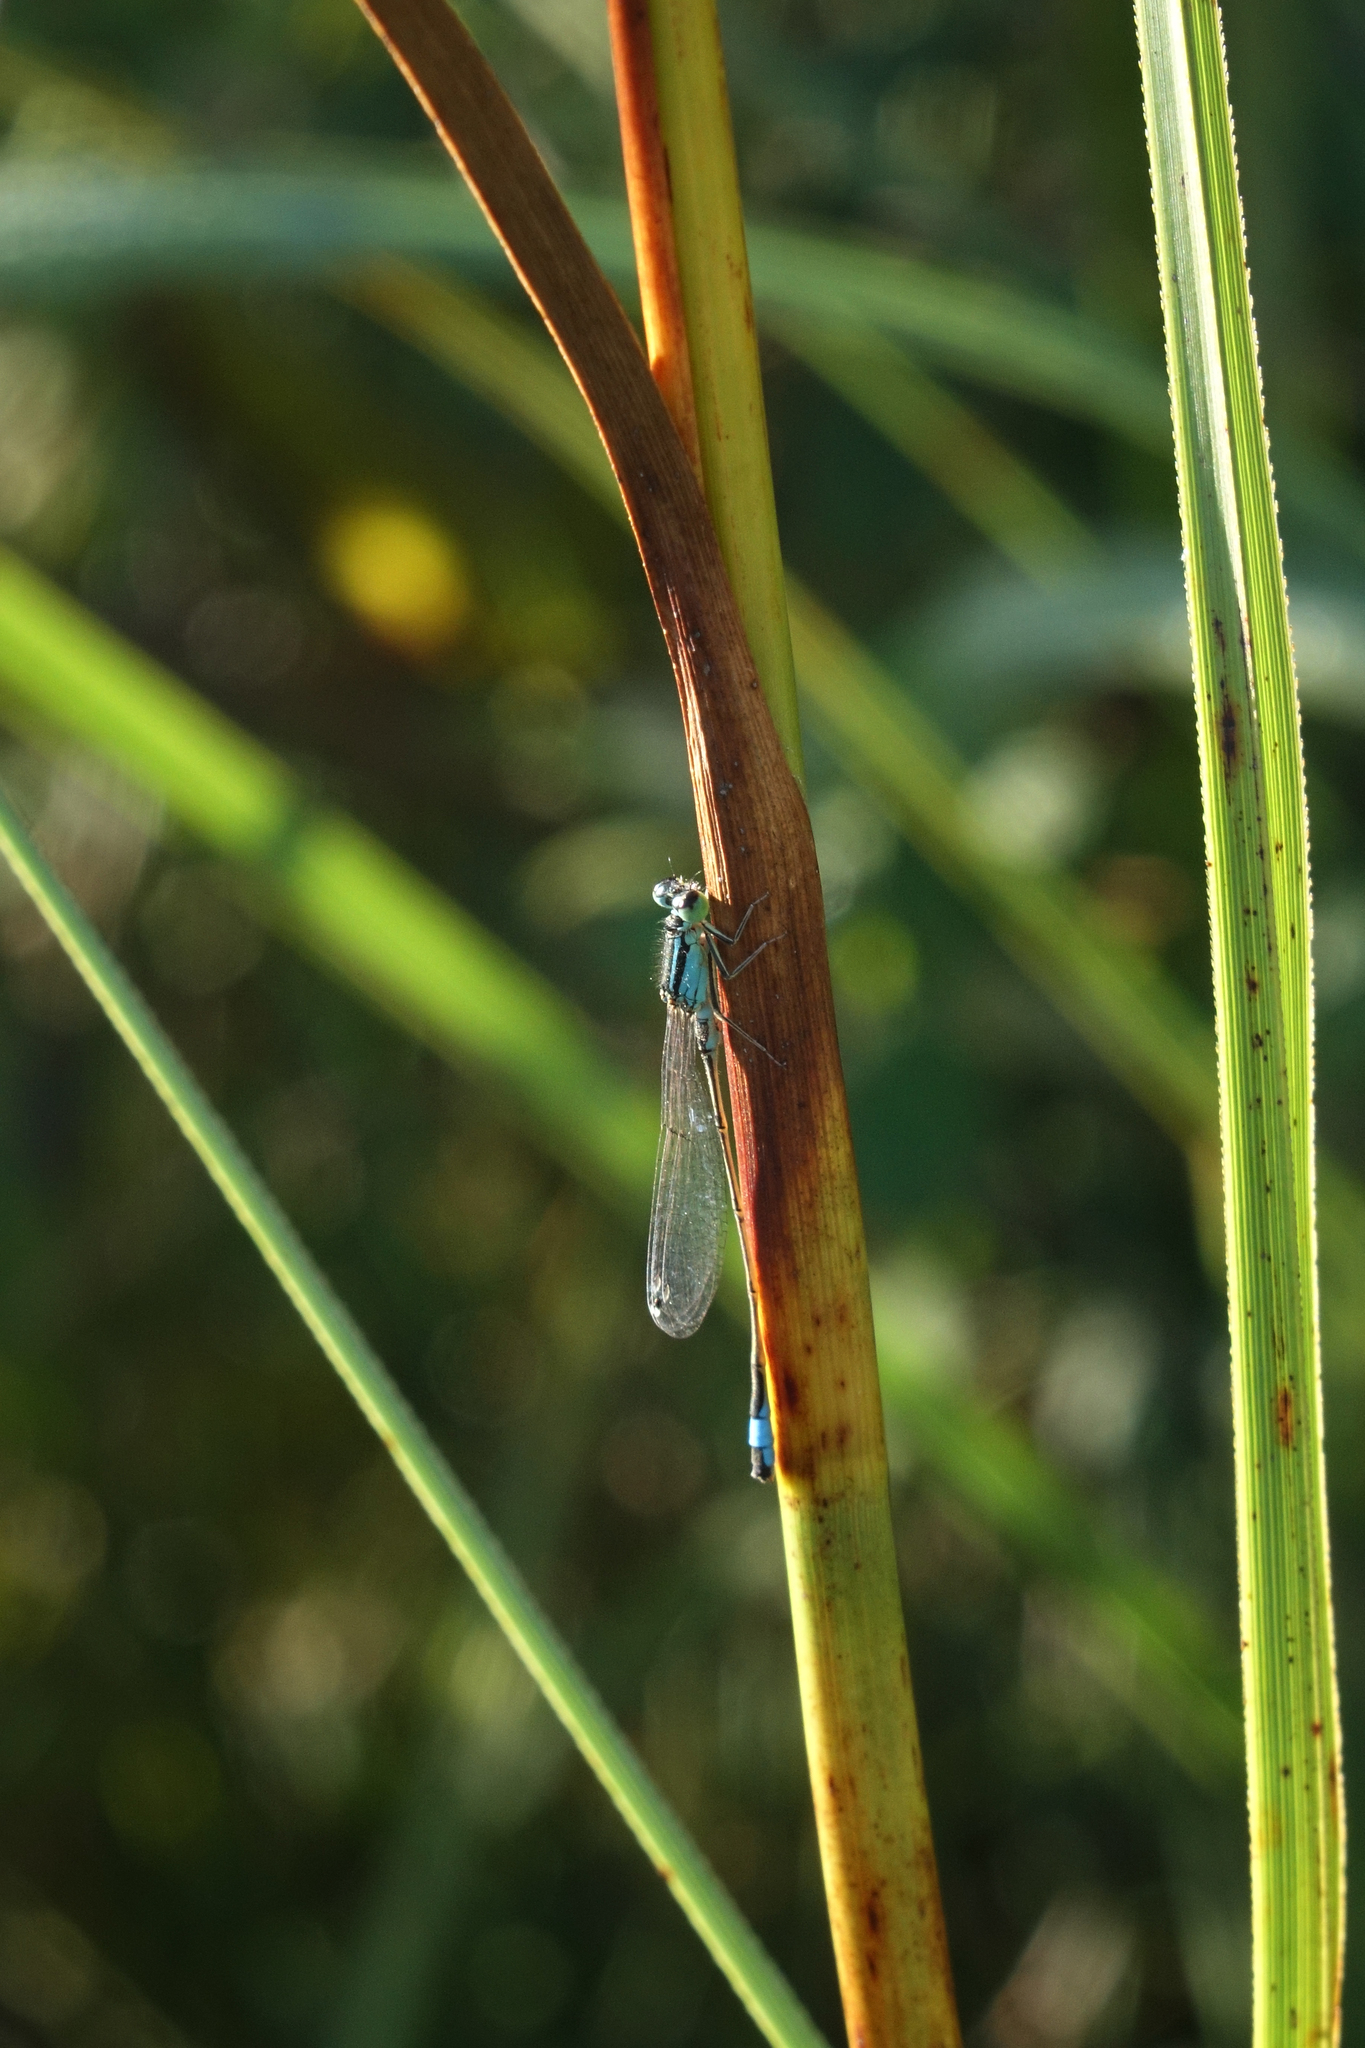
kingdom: Animalia
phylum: Arthropoda
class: Insecta
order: Odonata
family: Coenagrionidae
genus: Ischnura
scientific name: Ischnura elegans
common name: Blue-tailed damselfly
